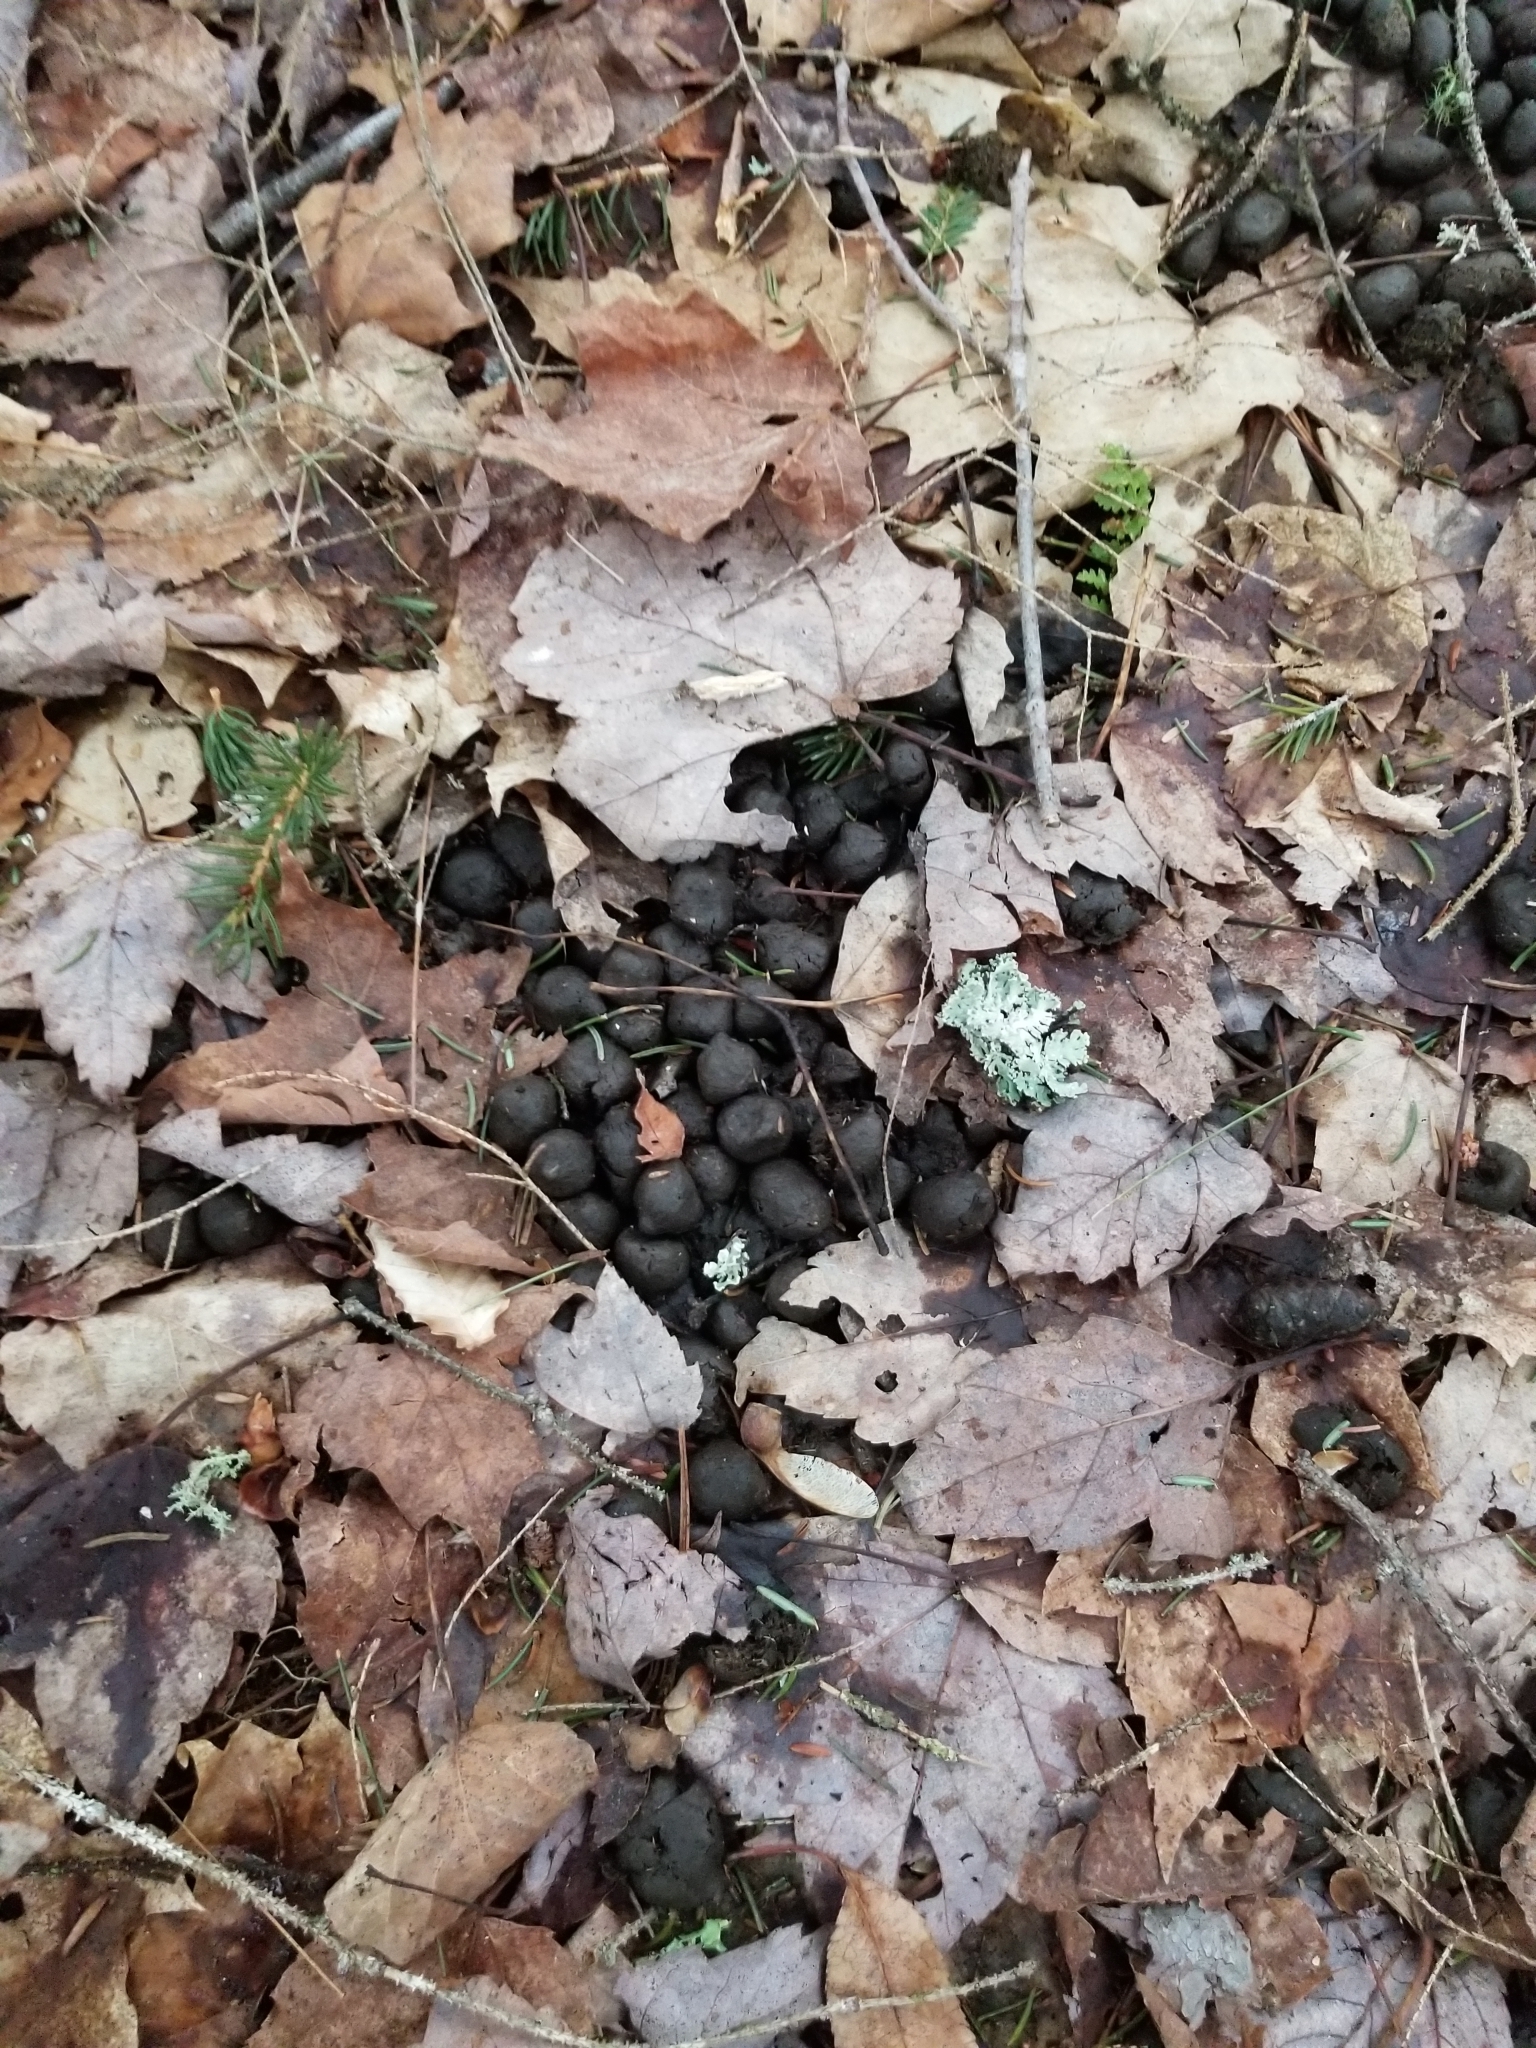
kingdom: Animalia
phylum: Chordata
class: Mammalia
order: Artiodactyla
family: Cervidae
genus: Odocoileus
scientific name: Odocoileus virginianus
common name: White-tailed deer
